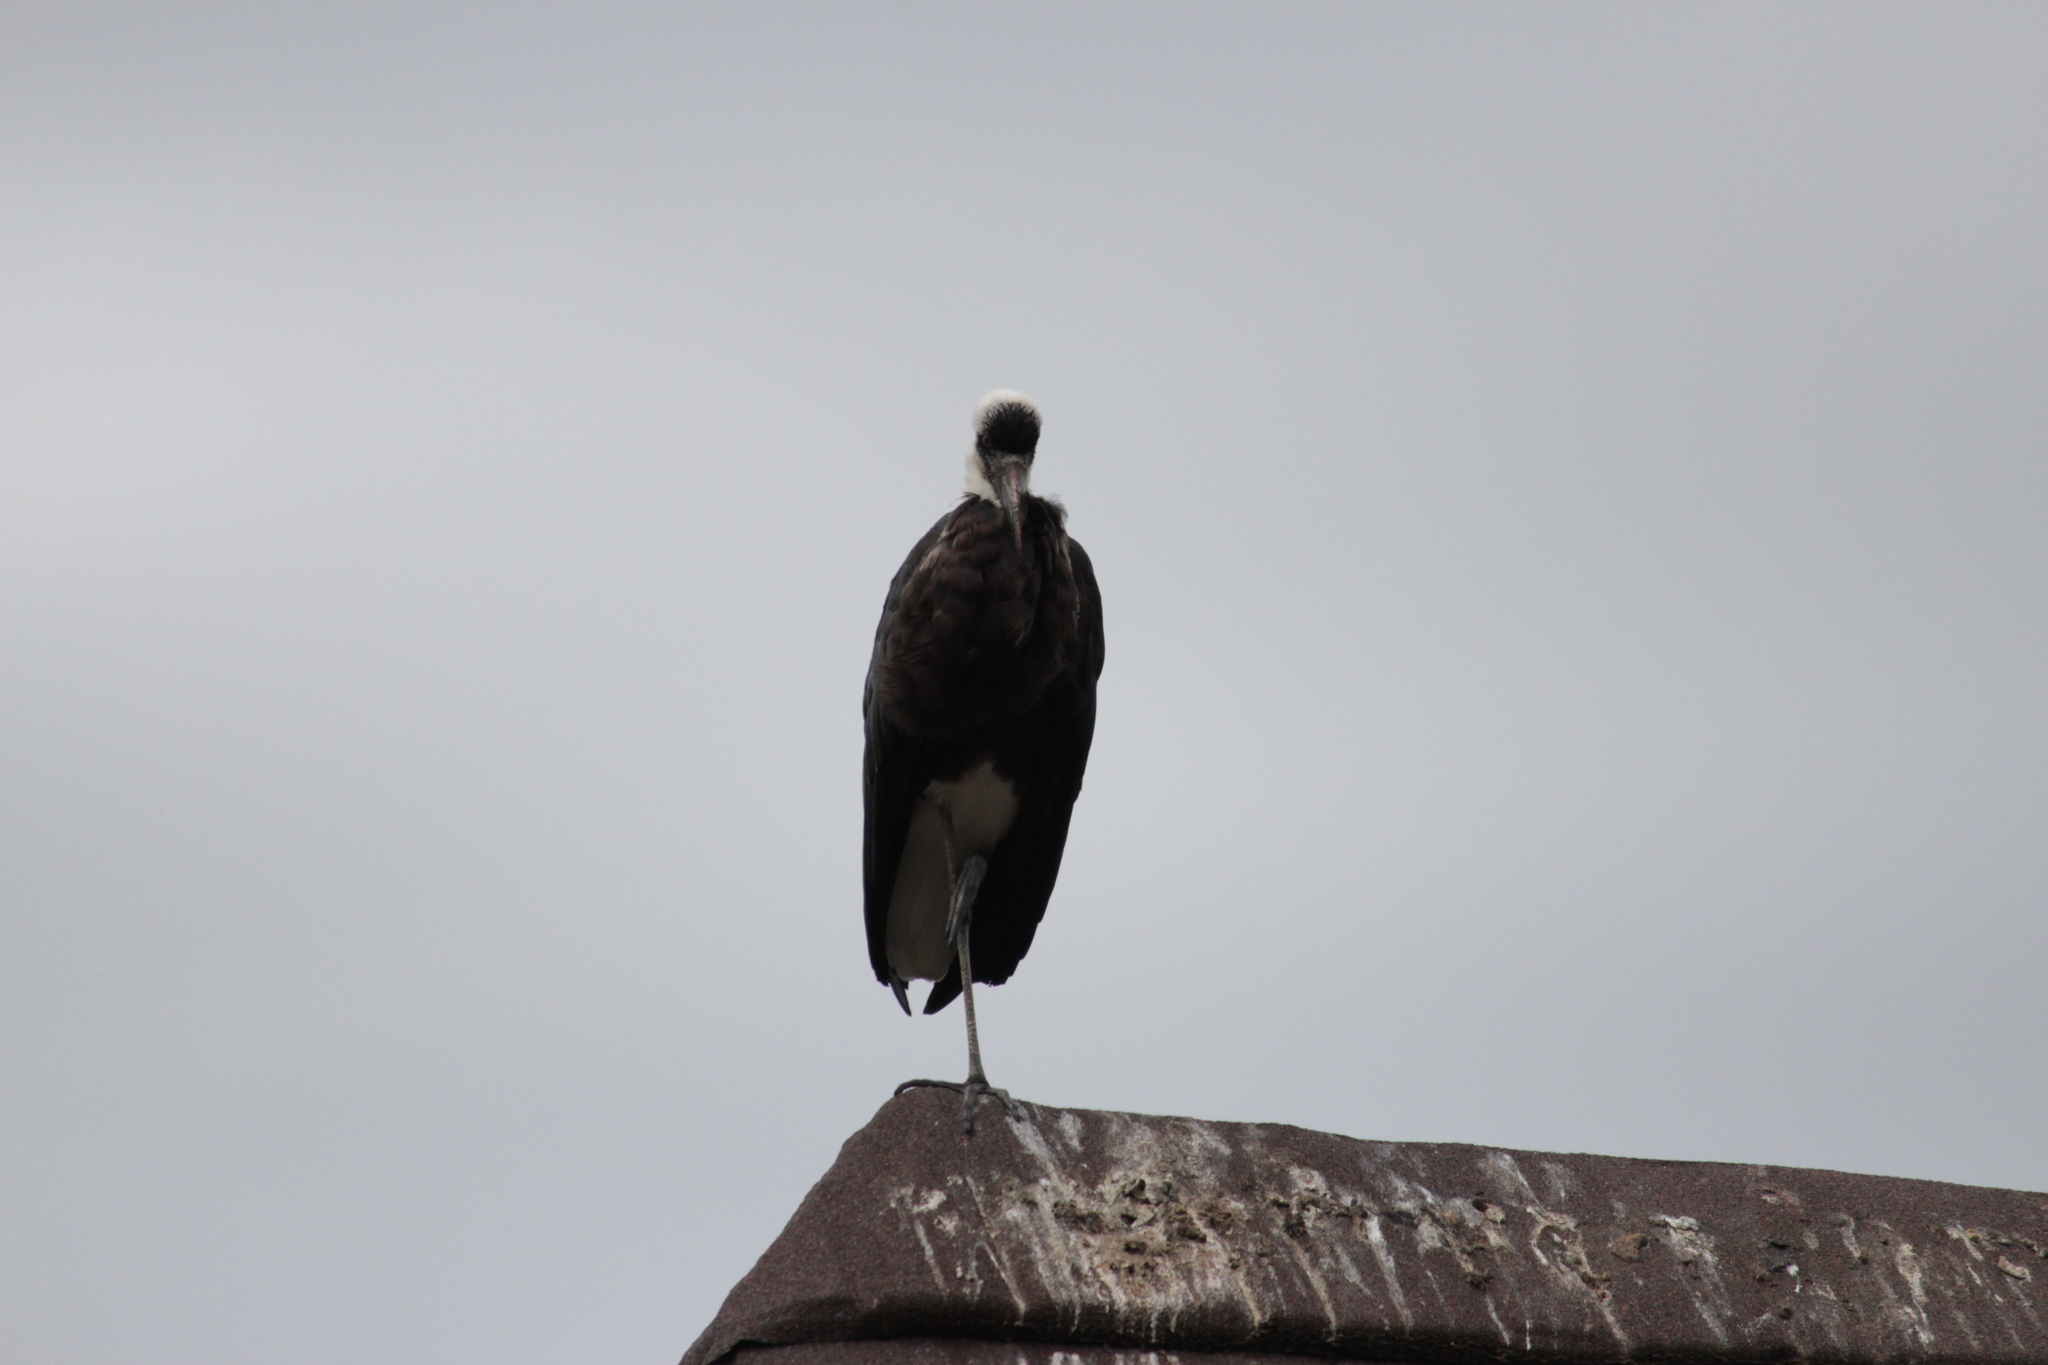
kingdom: Animalia
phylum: Chordata
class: Aves
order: Ciconiiformes
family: Ciconiidae
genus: Ciconia
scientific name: Ciconia microscelis
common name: African woollyneck
